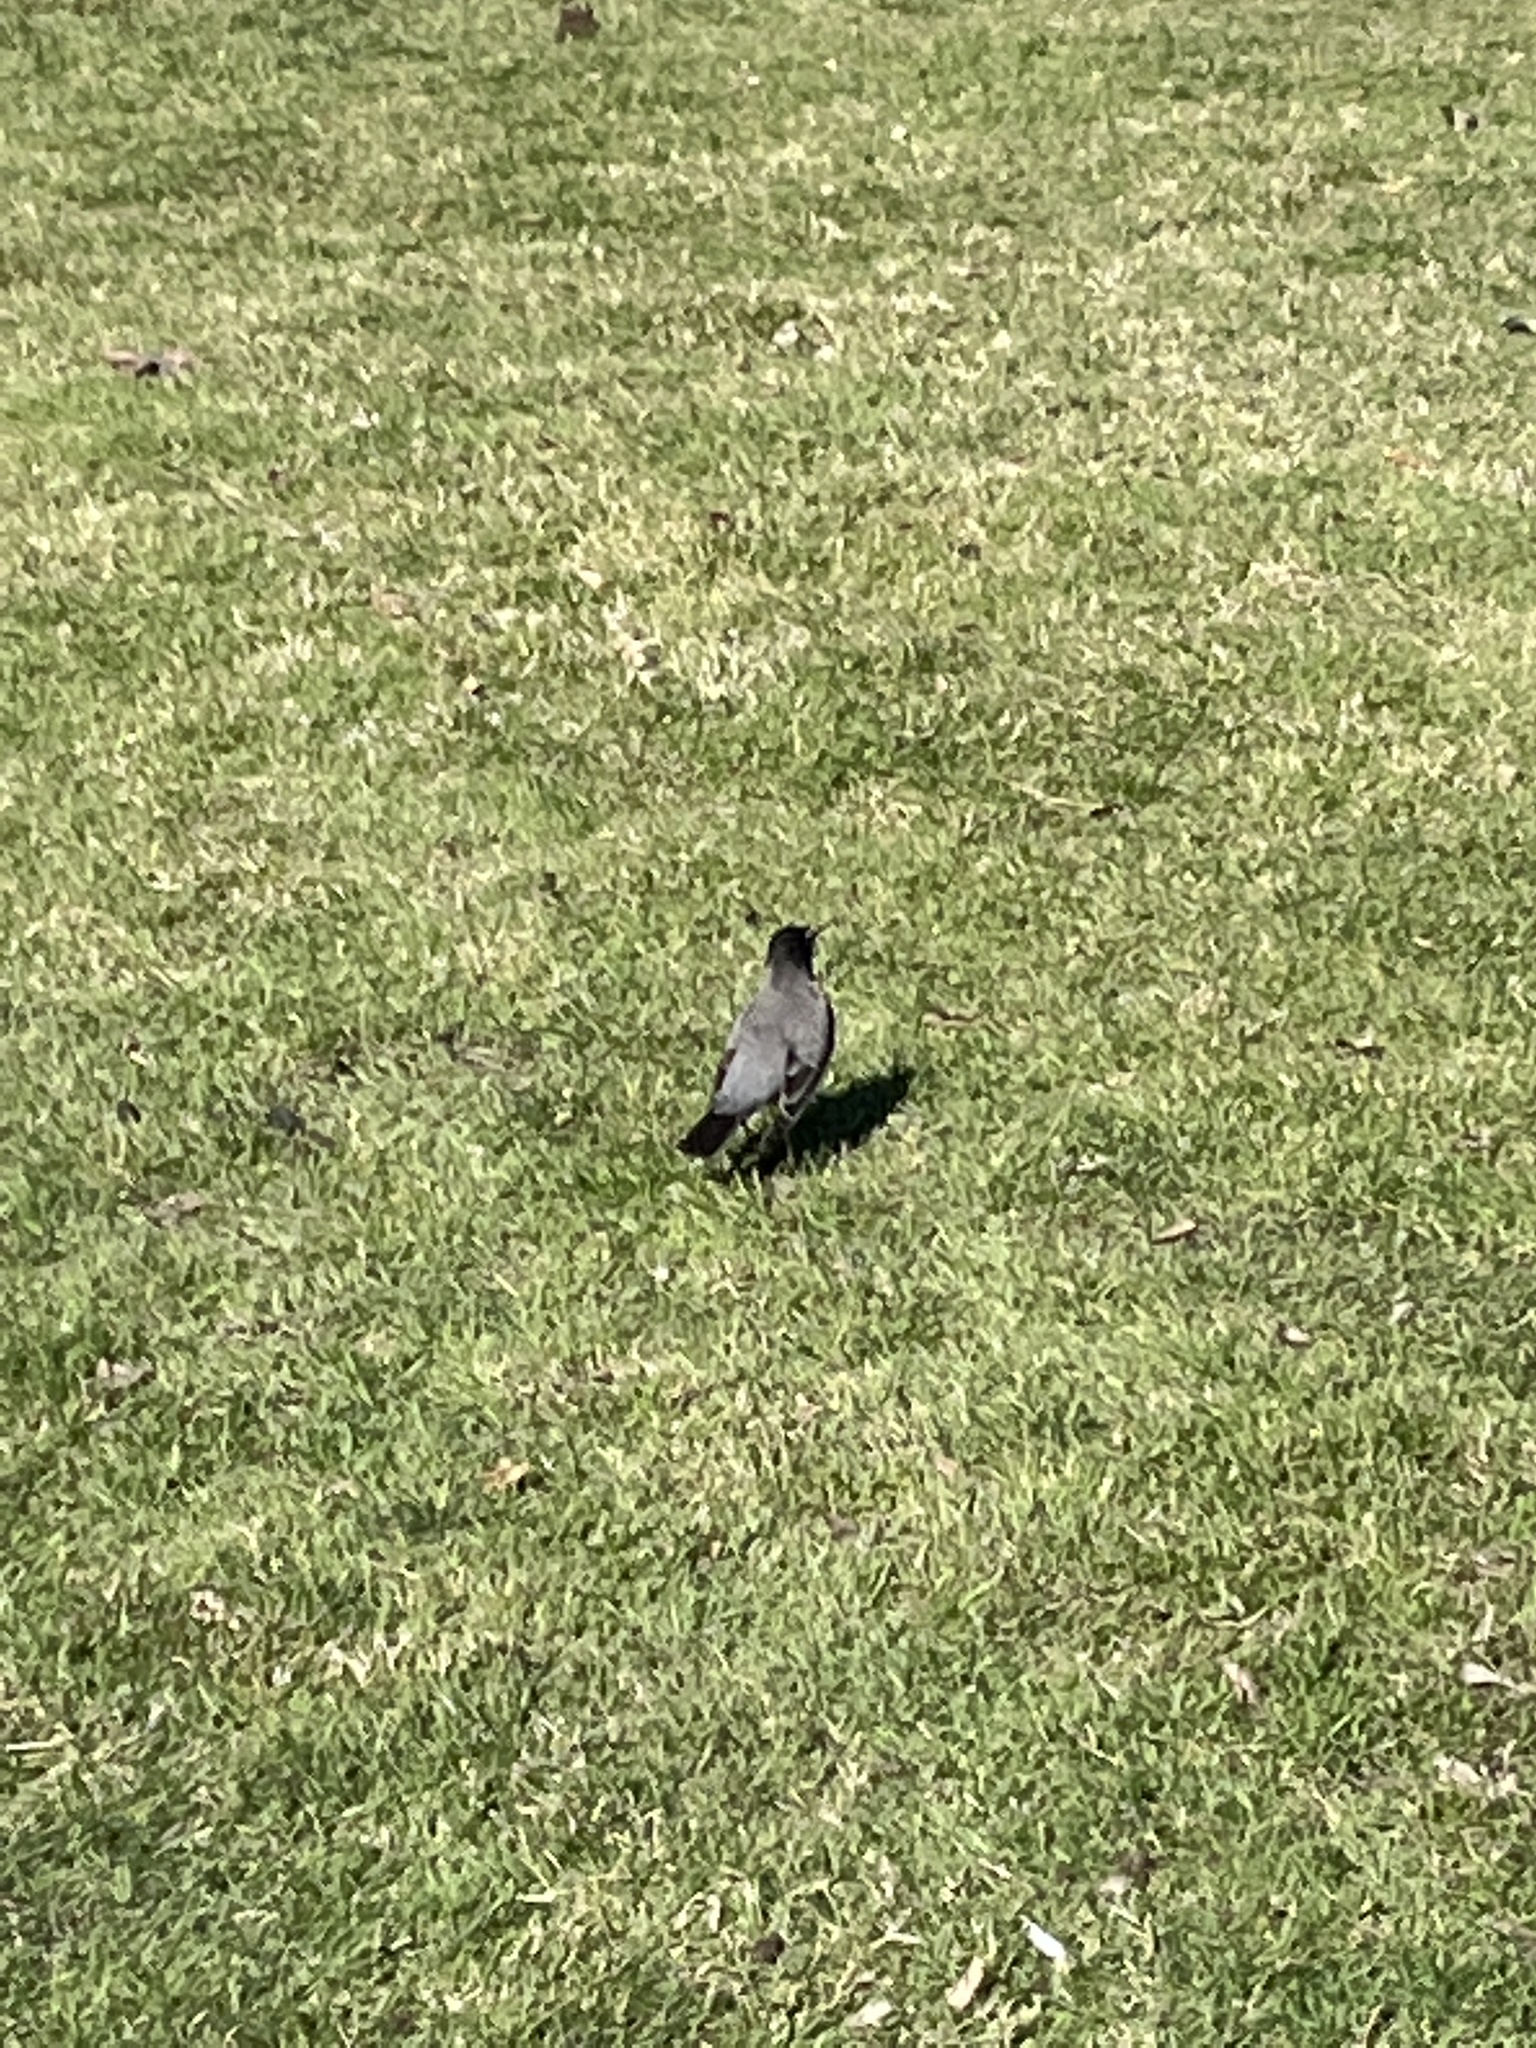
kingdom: Animalia
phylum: Chordata
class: Aves
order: Passeriformes
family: Turdidae
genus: Turdus
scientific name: Turdus migratorius
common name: American robin
